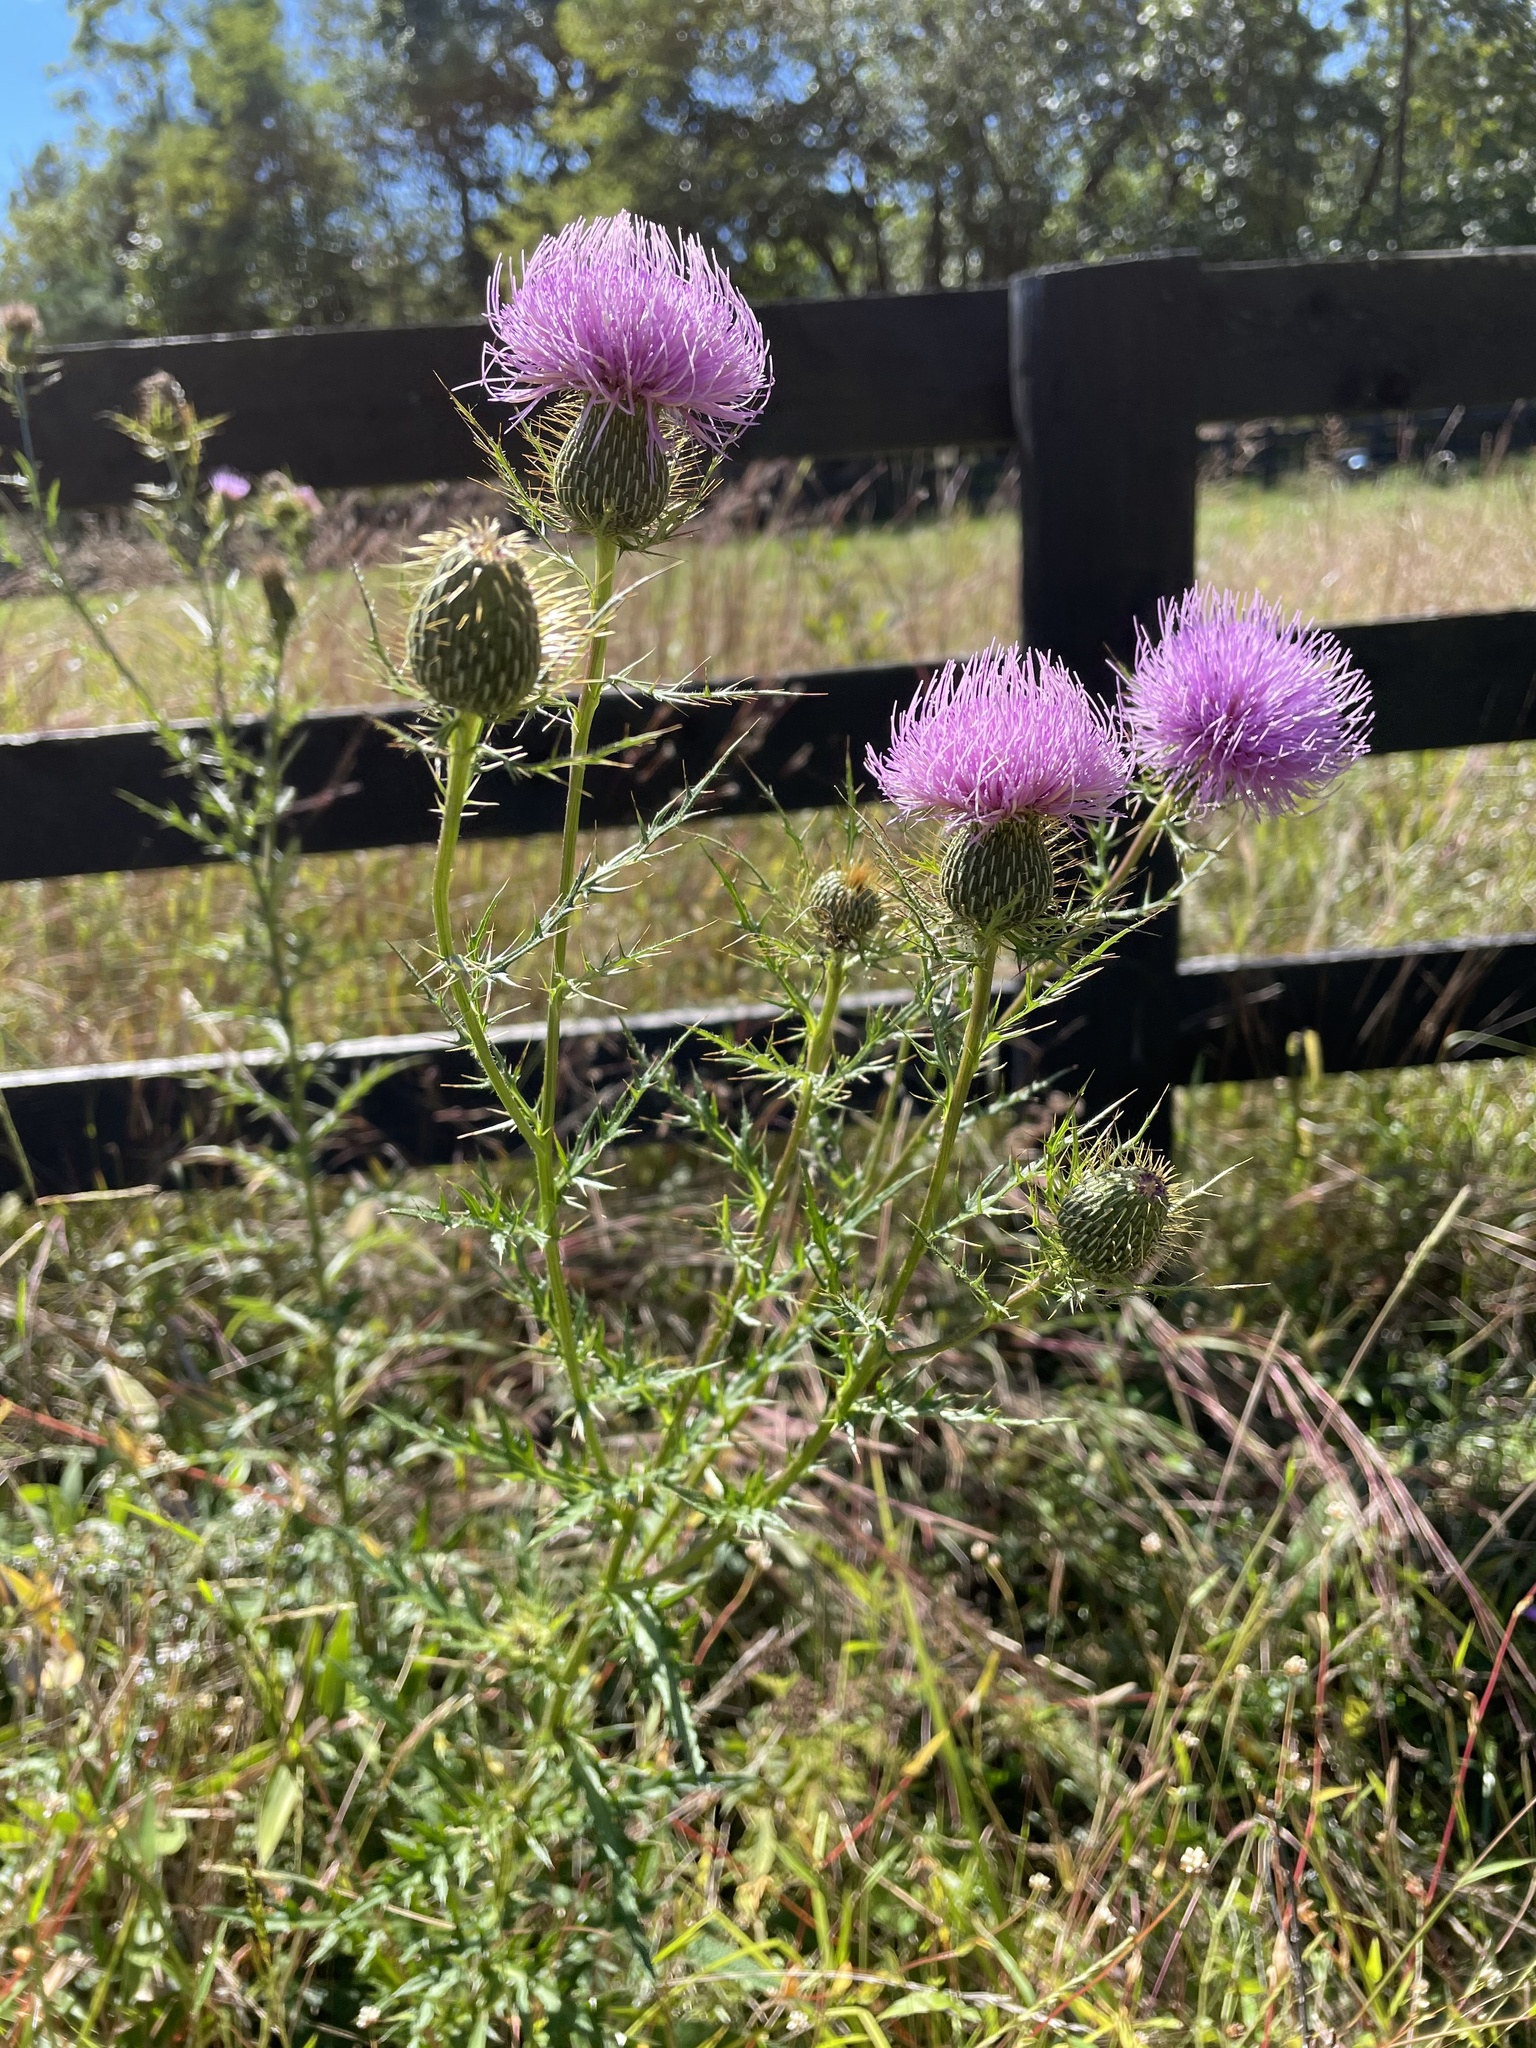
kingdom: Plantae
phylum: Tracheophyta
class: Magnoliopsida
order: Asterales
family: Asteraceae
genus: Cirsium
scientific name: Cirsium discolor
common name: Field thistle
